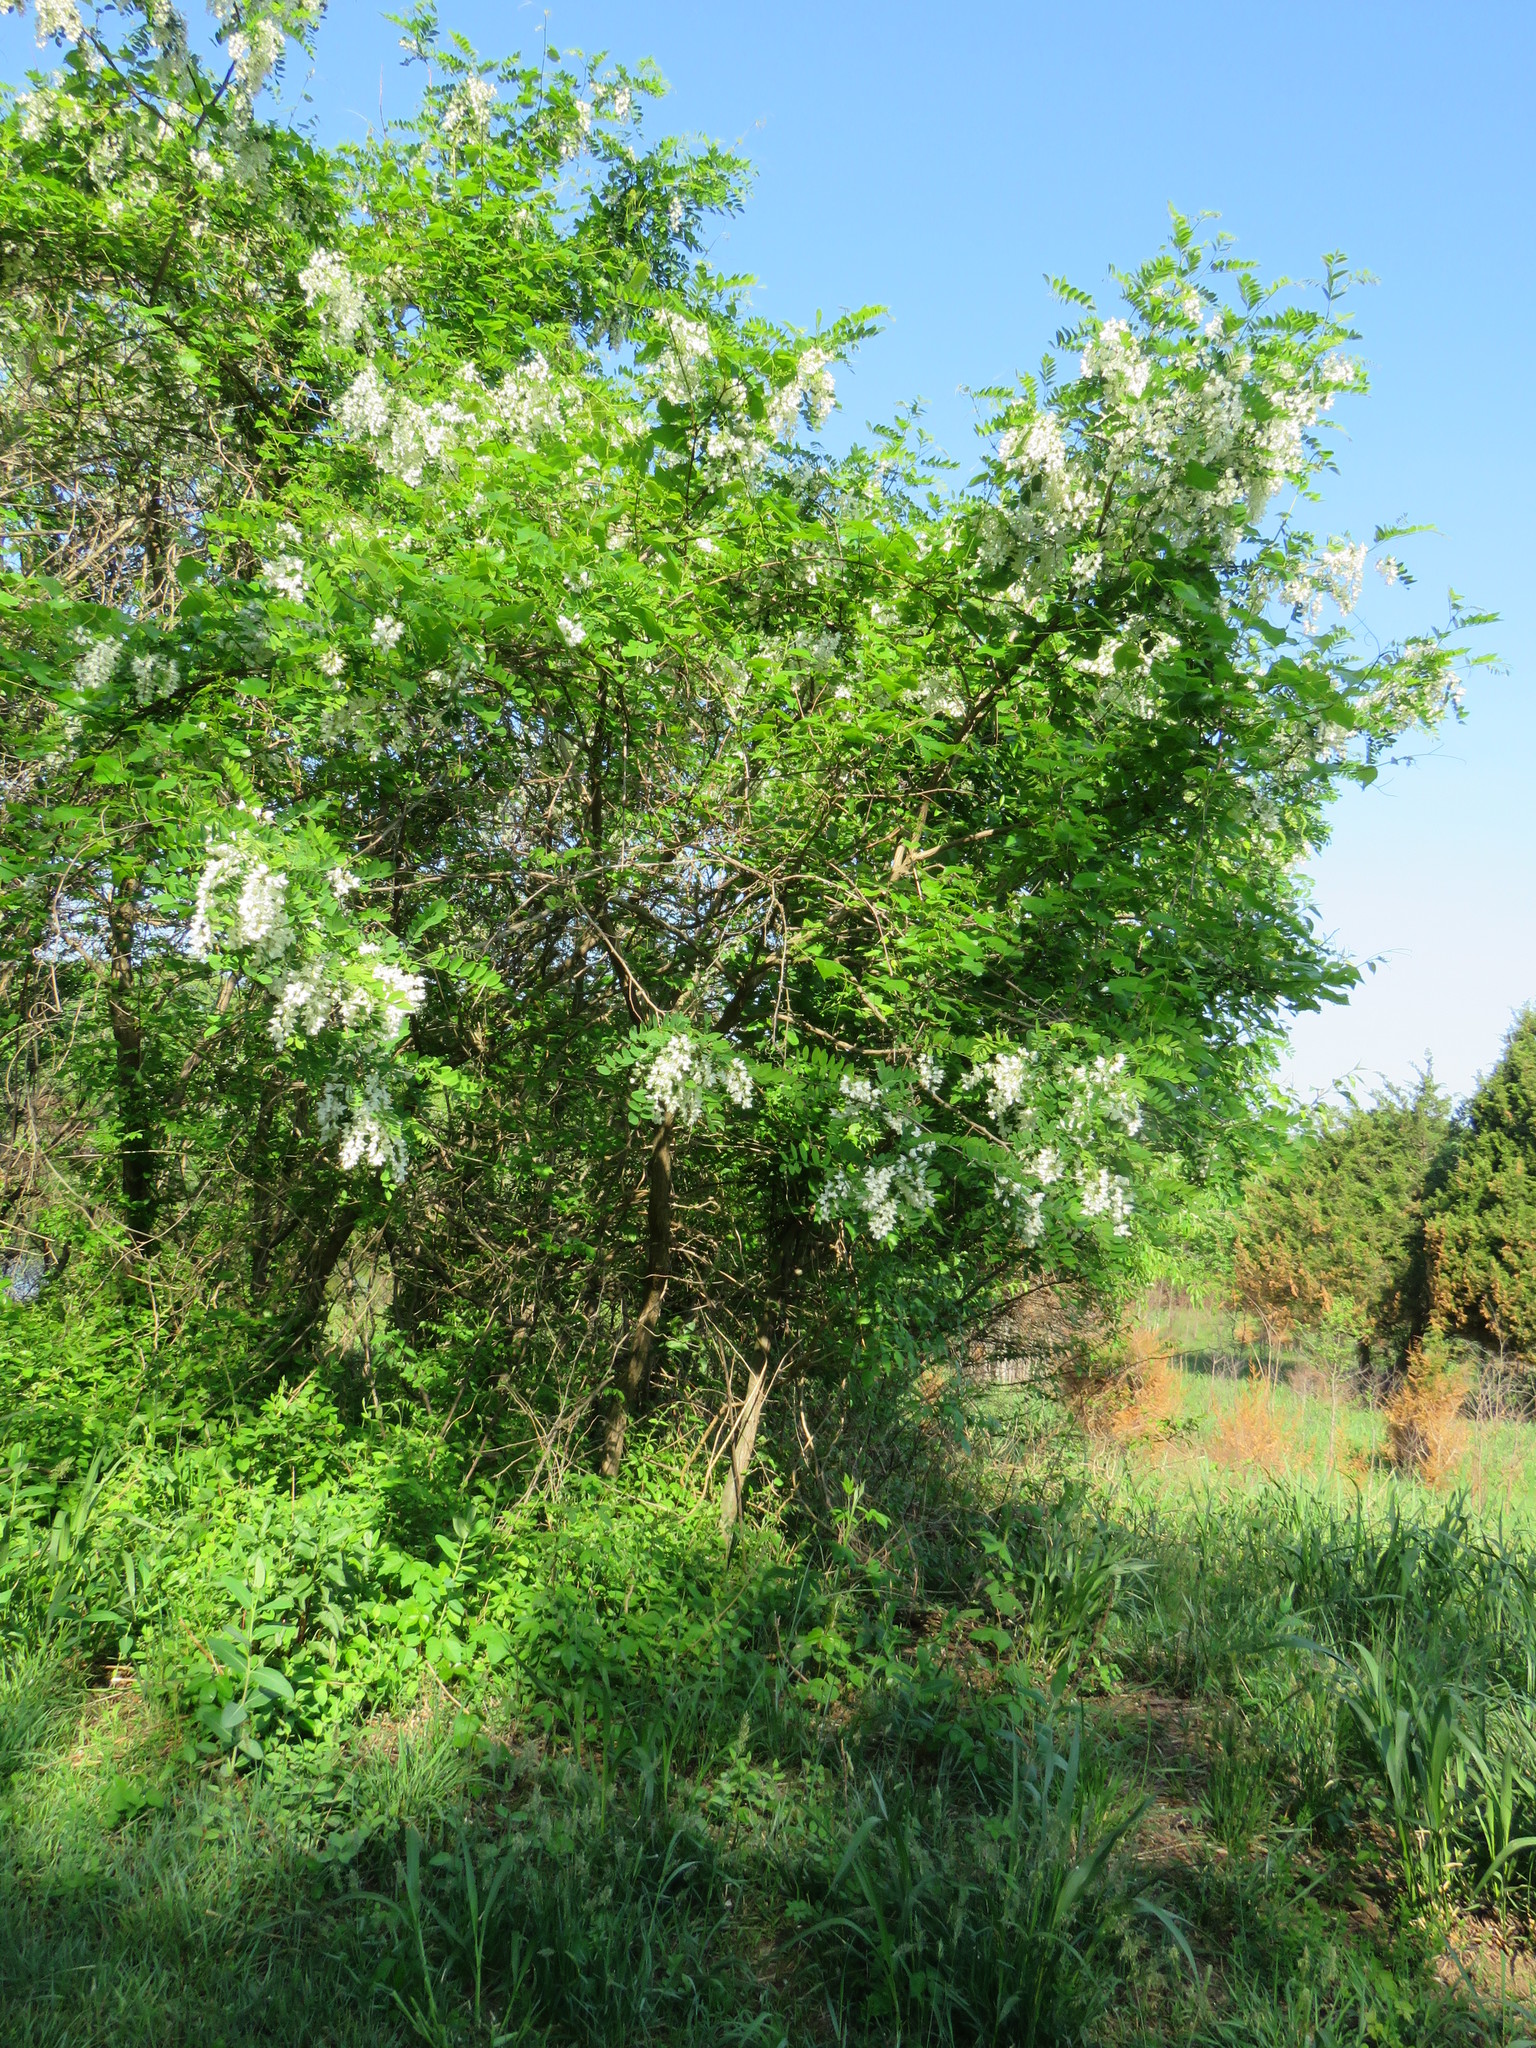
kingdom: Plantae
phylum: Tracheophyta
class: Magnoliopsida
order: Fabales
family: Fabaceae
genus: Robinia
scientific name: Robinia pseudoacacia
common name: Black locust
